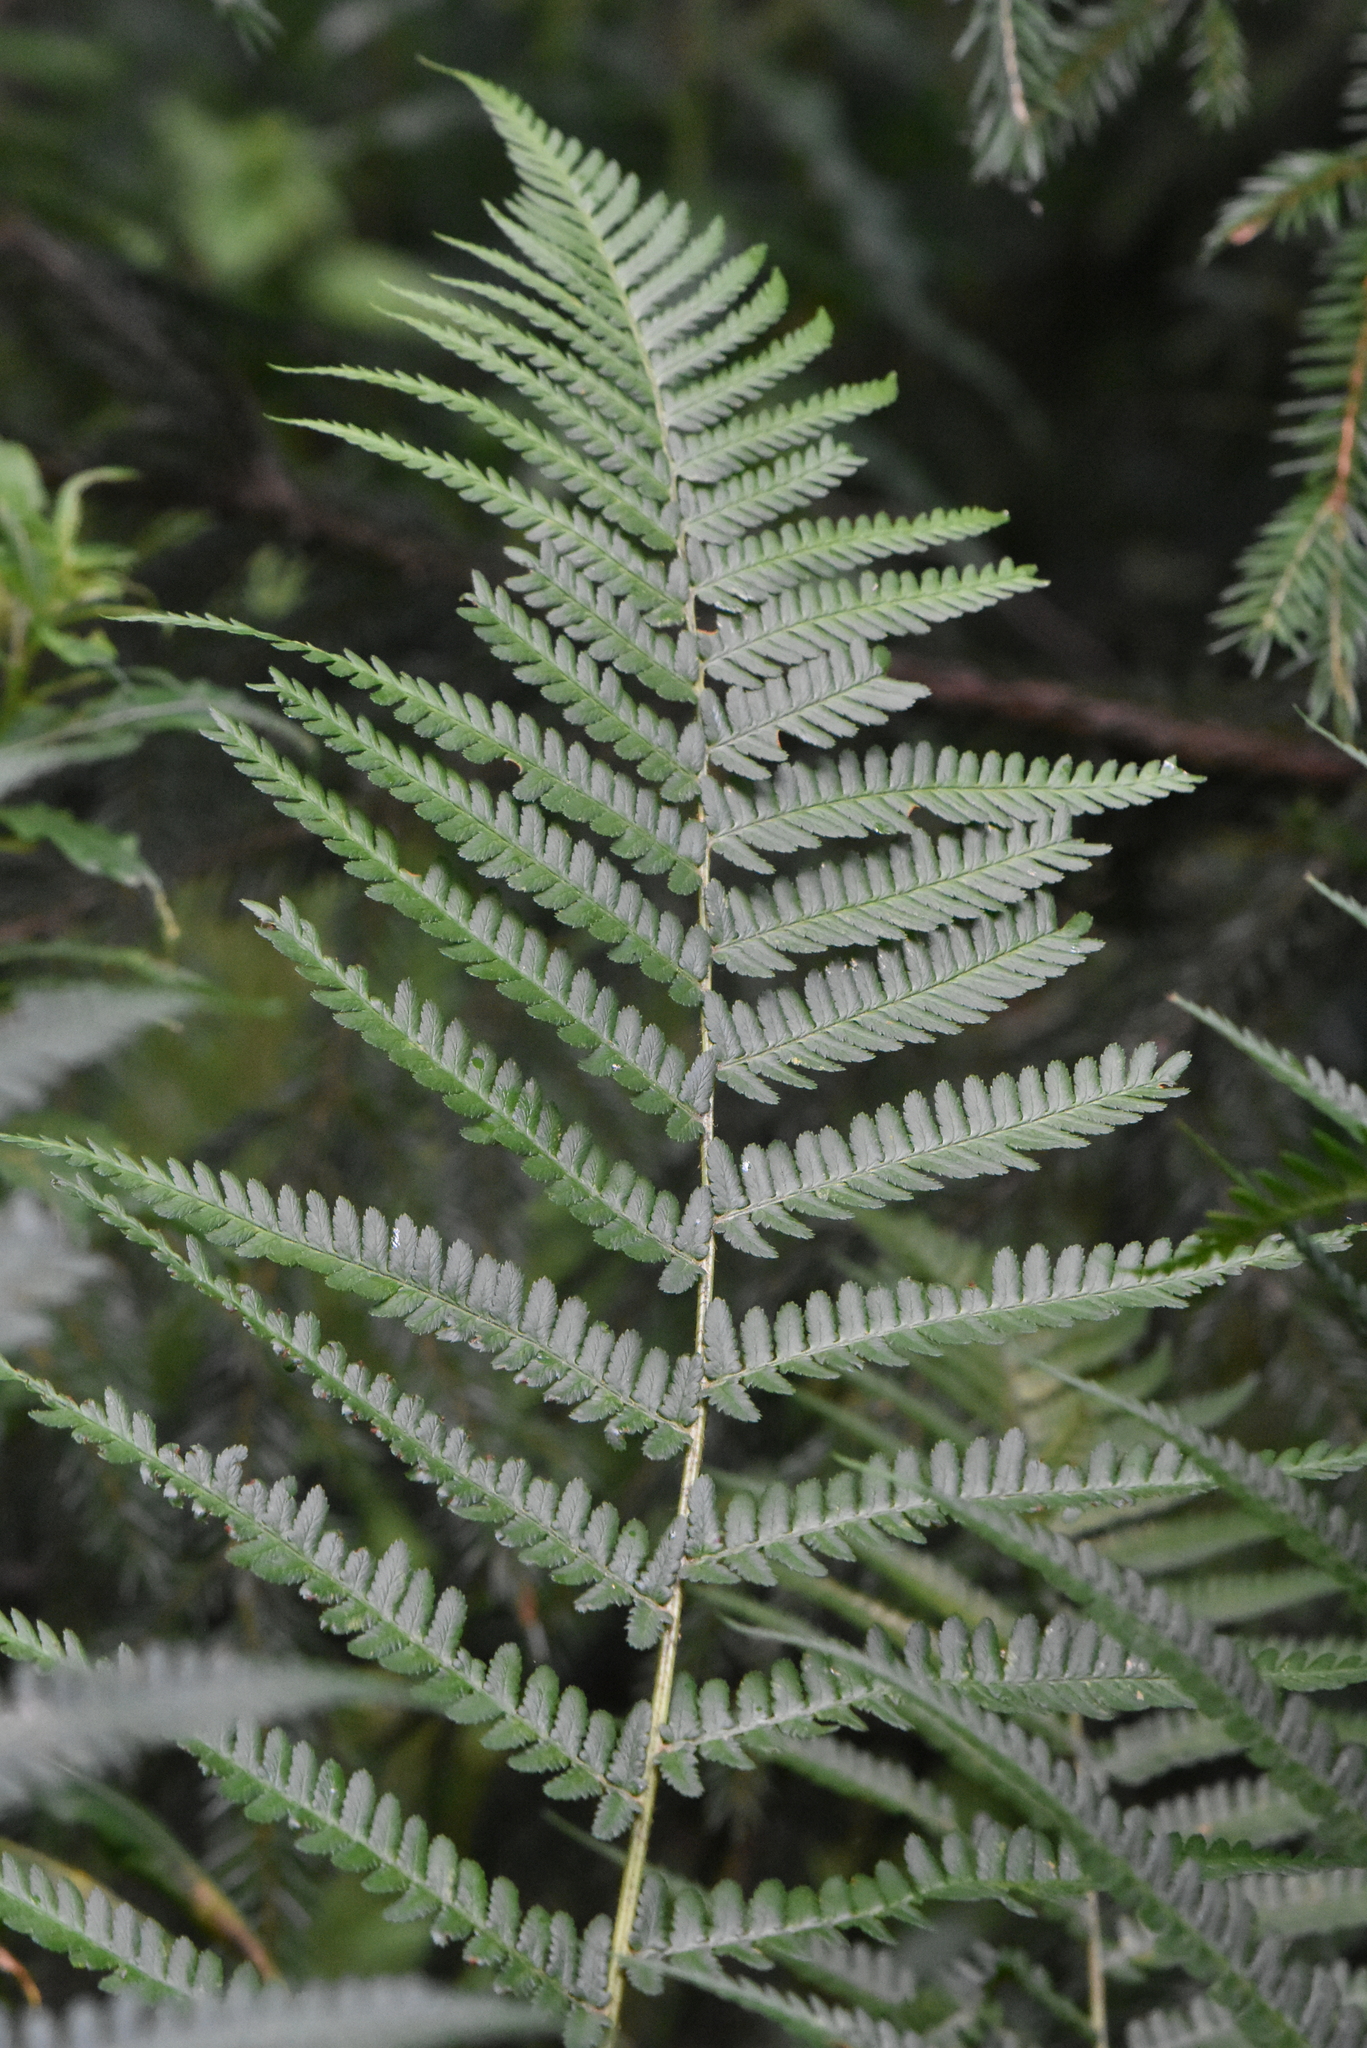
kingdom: Plantae
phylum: Tracheophyta
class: Polypodiopsida
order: Polypodiales
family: Dryopteridaceae
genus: Dryopteris
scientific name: Dryopteris filix-mas
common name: Male fern
